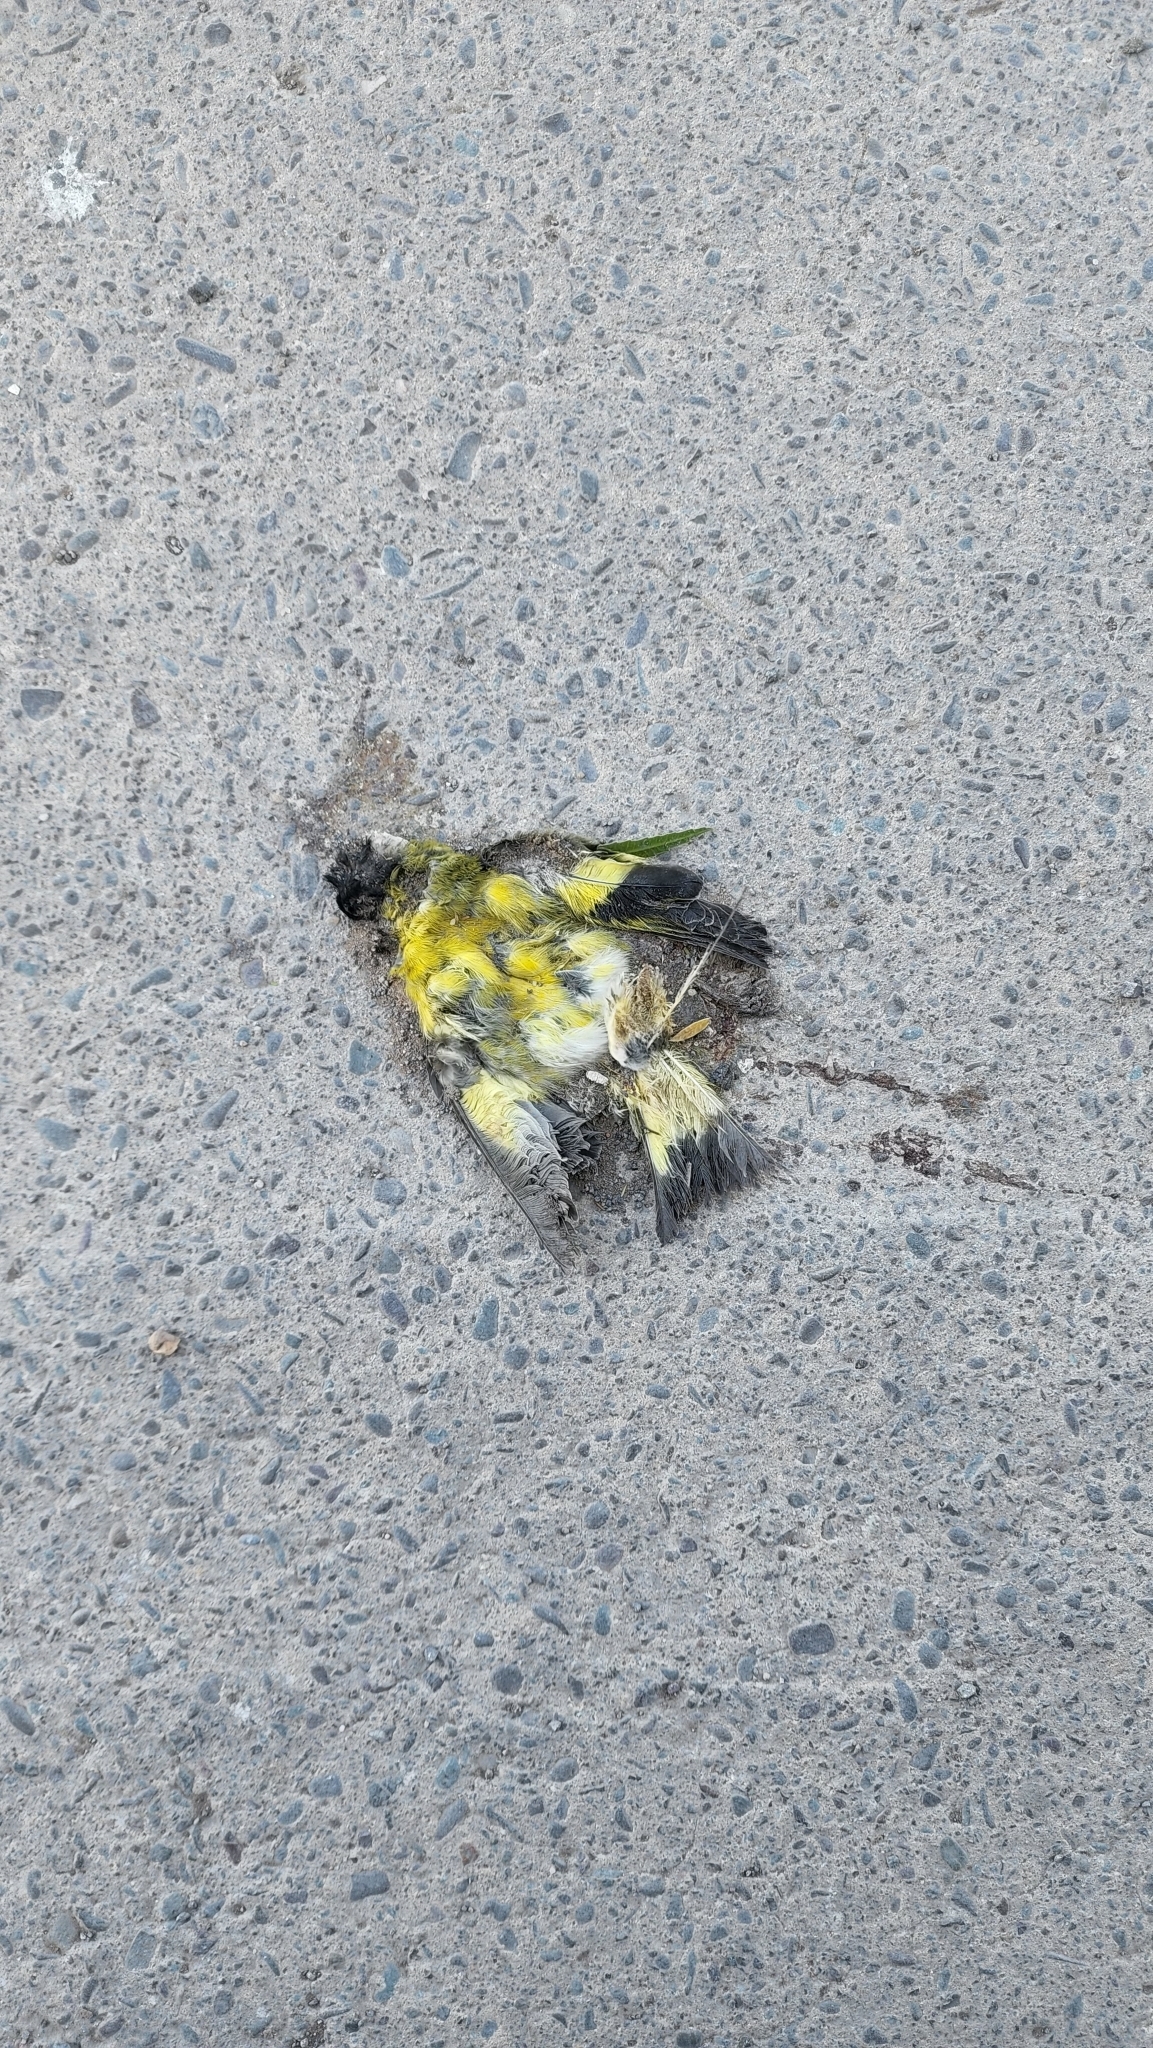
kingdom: Animalia
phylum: Chordata
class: Aves
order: Passeriformes
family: Fringillidae
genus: Spinus
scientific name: Spinus magellanicus
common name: Hooded siskin
